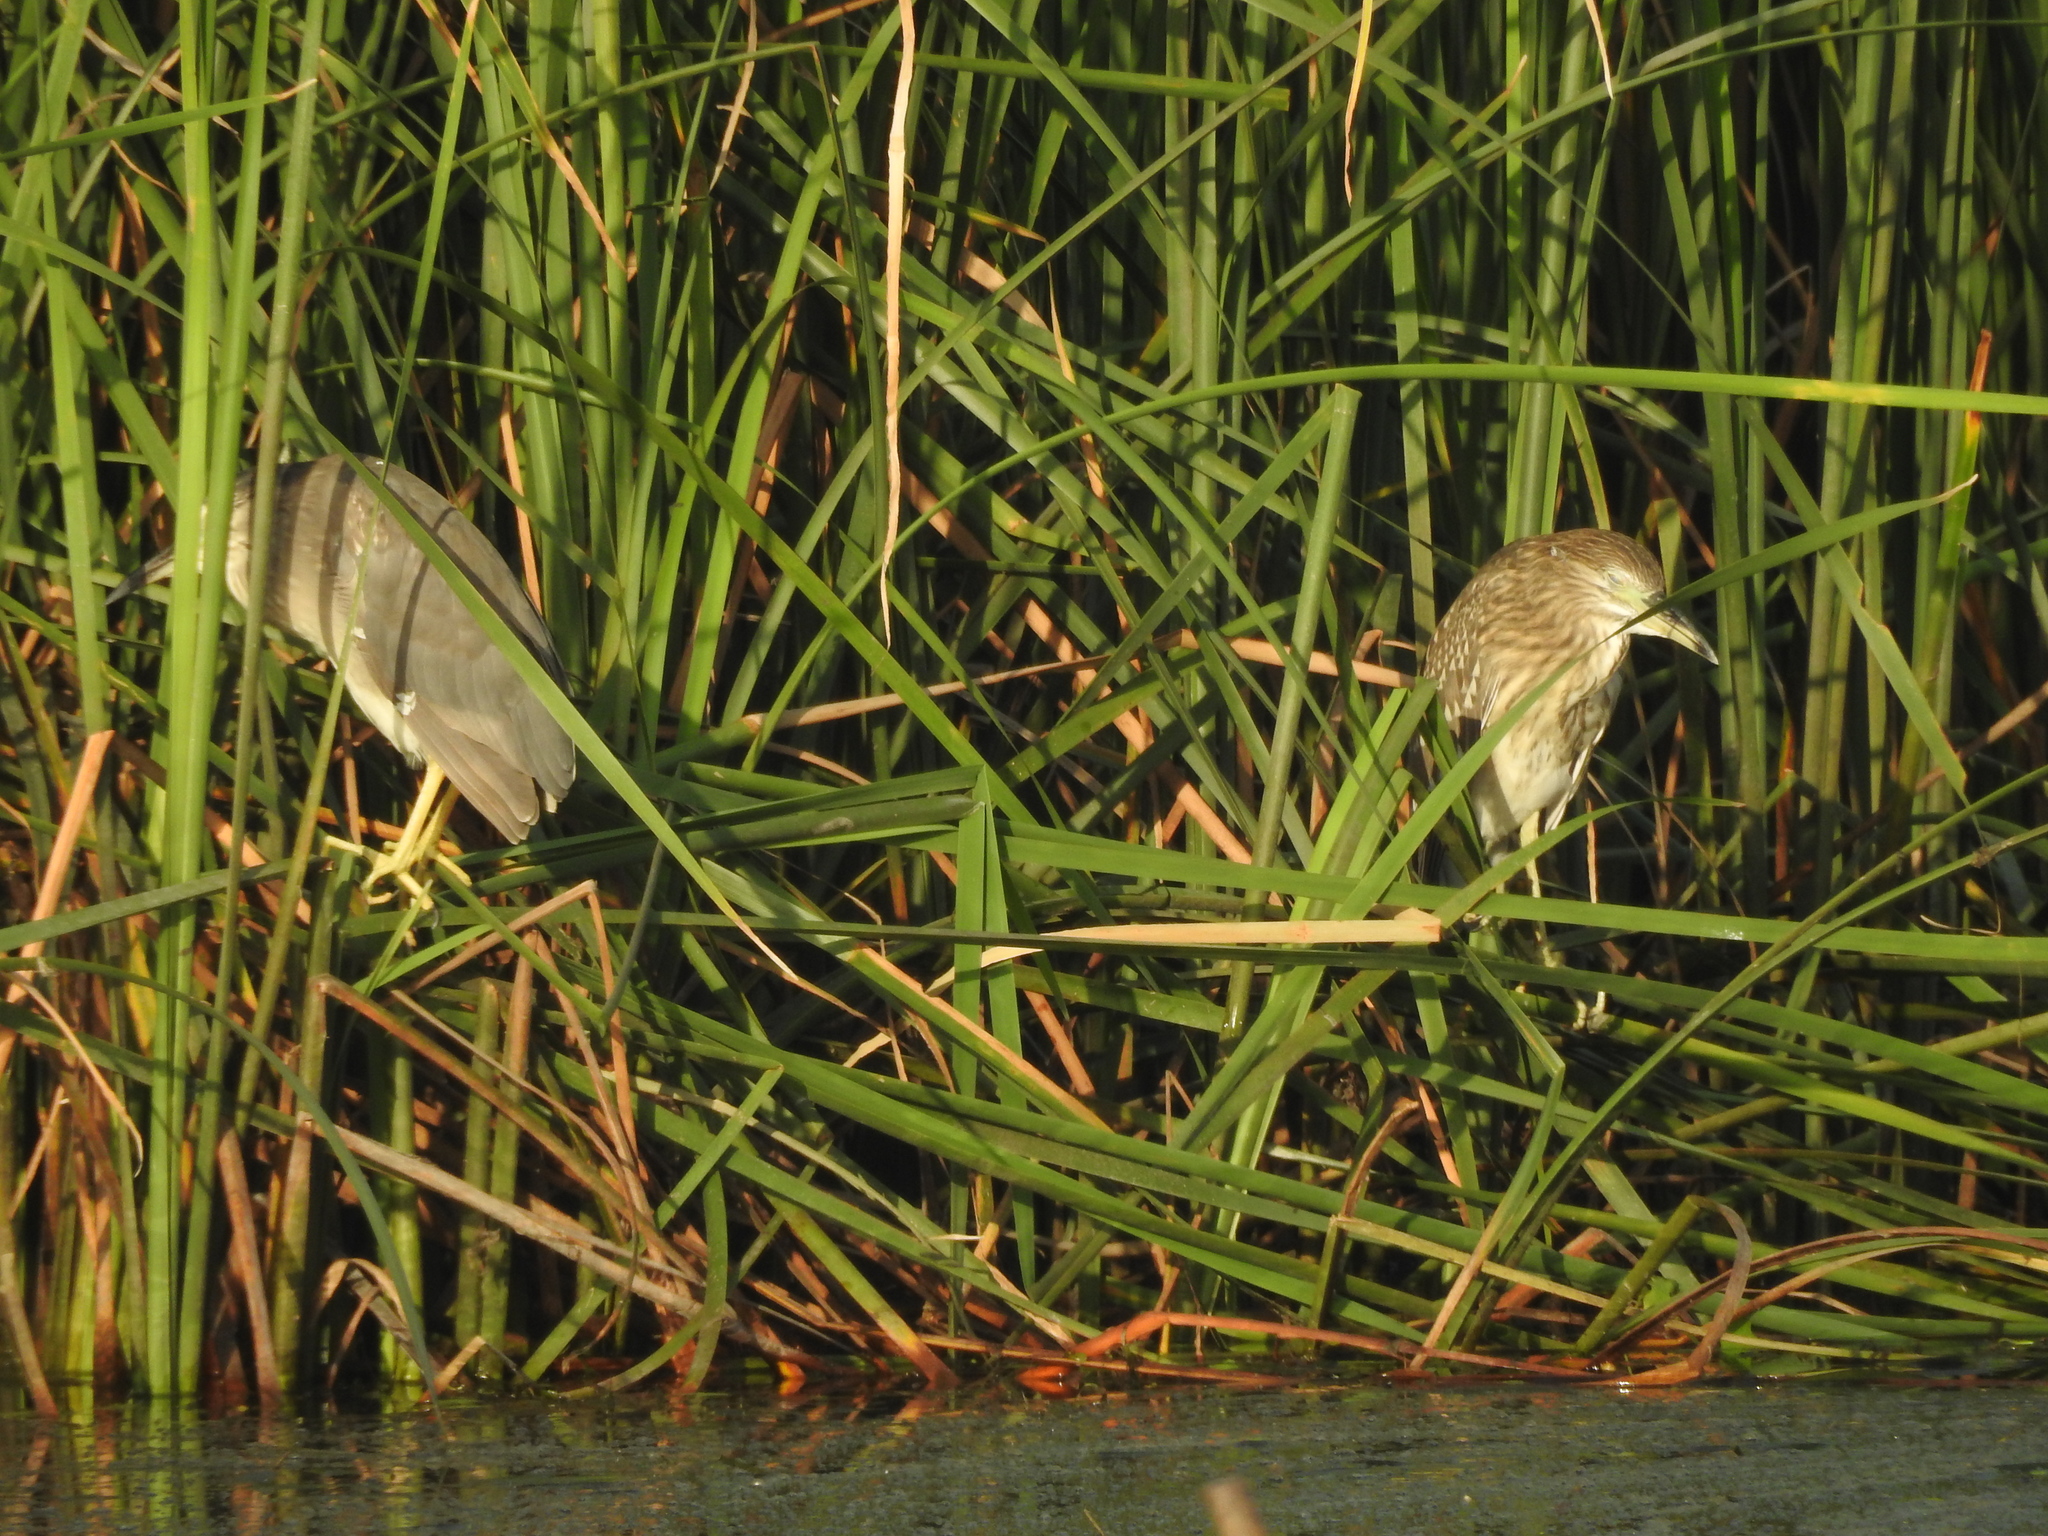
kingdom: Animalia
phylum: Chordata
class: Aves
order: Pelecaniformes
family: Ardeidae
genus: Nycticorax
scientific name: Nycticorax nycticorax
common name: Black-crowned night heron
